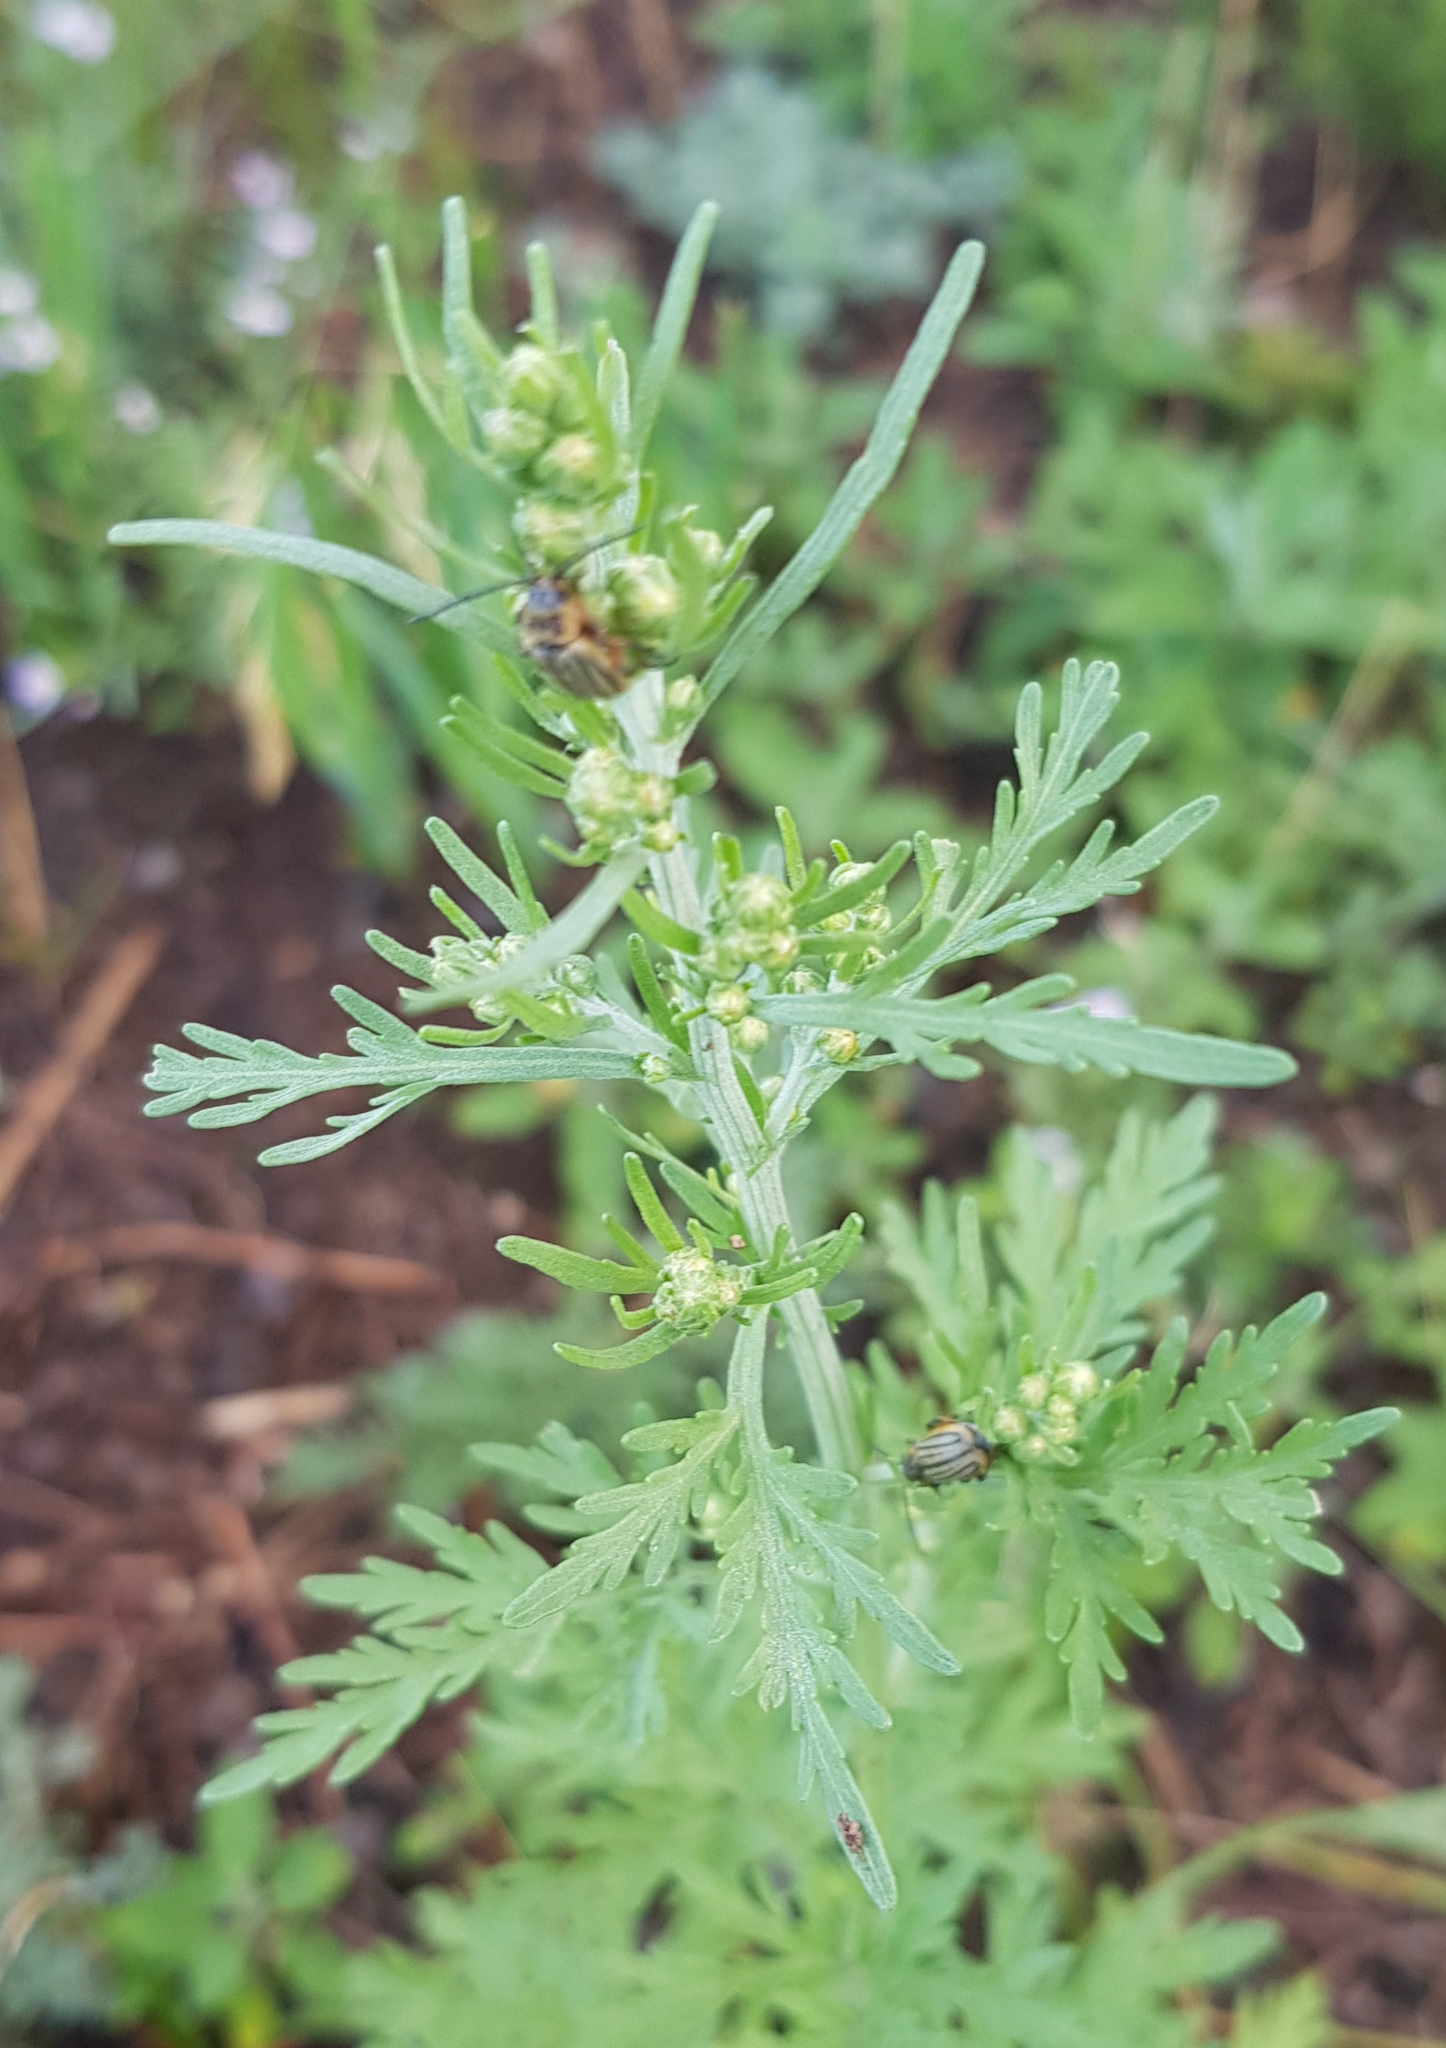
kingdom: Plantae
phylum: Tracheophyta
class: Magnoliopsida
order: Asterales
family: Asteraceae
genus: Artemisia
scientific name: Artemisia annua
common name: Sweet sagewort
